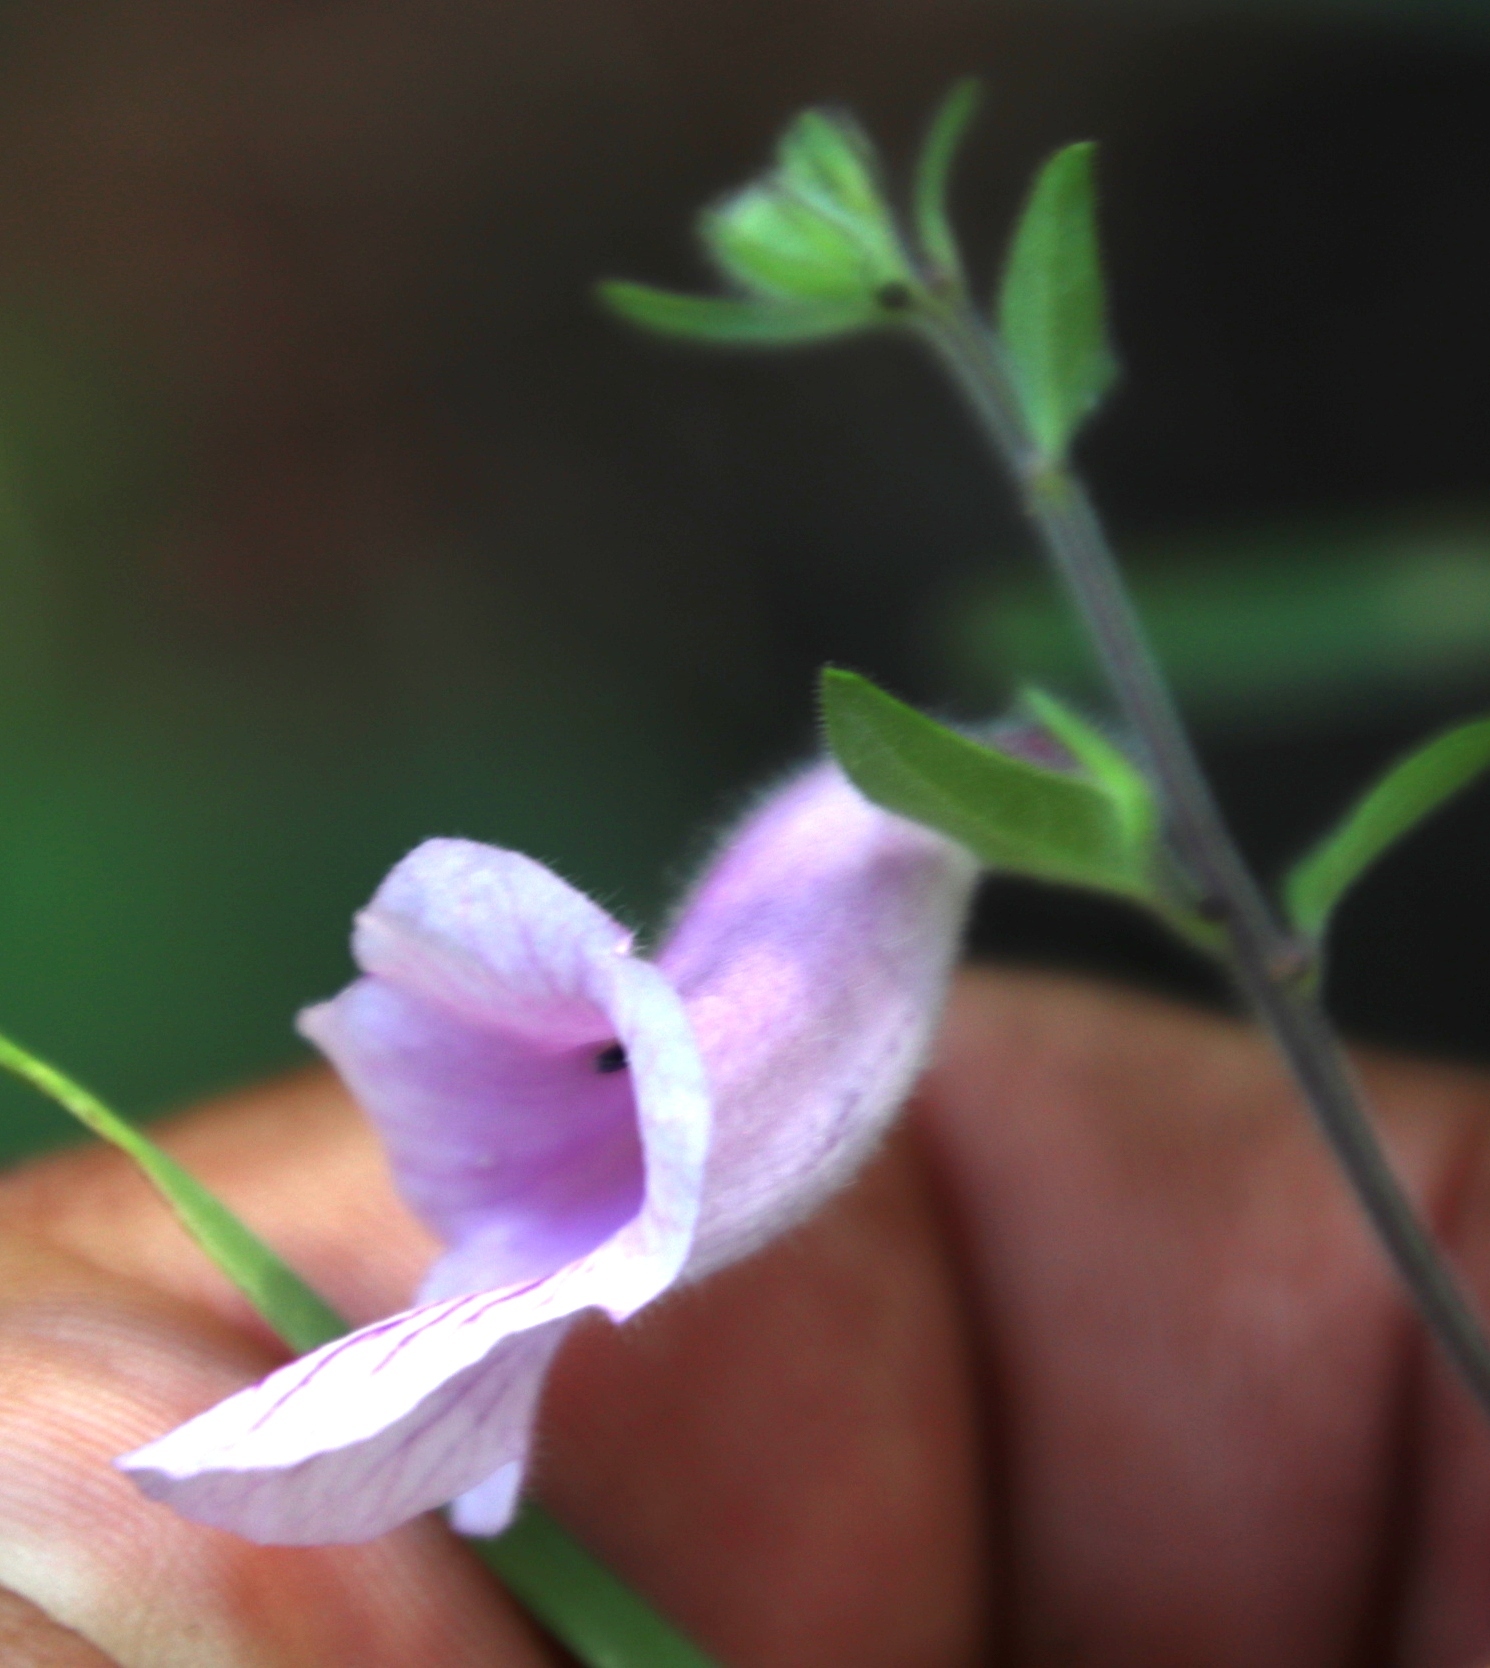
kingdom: Plantae
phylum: Tracheophyta
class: Magnoliopsida
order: Lamiales
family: Pedaliaceae
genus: Sesamum
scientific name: Sesamum trilobum
